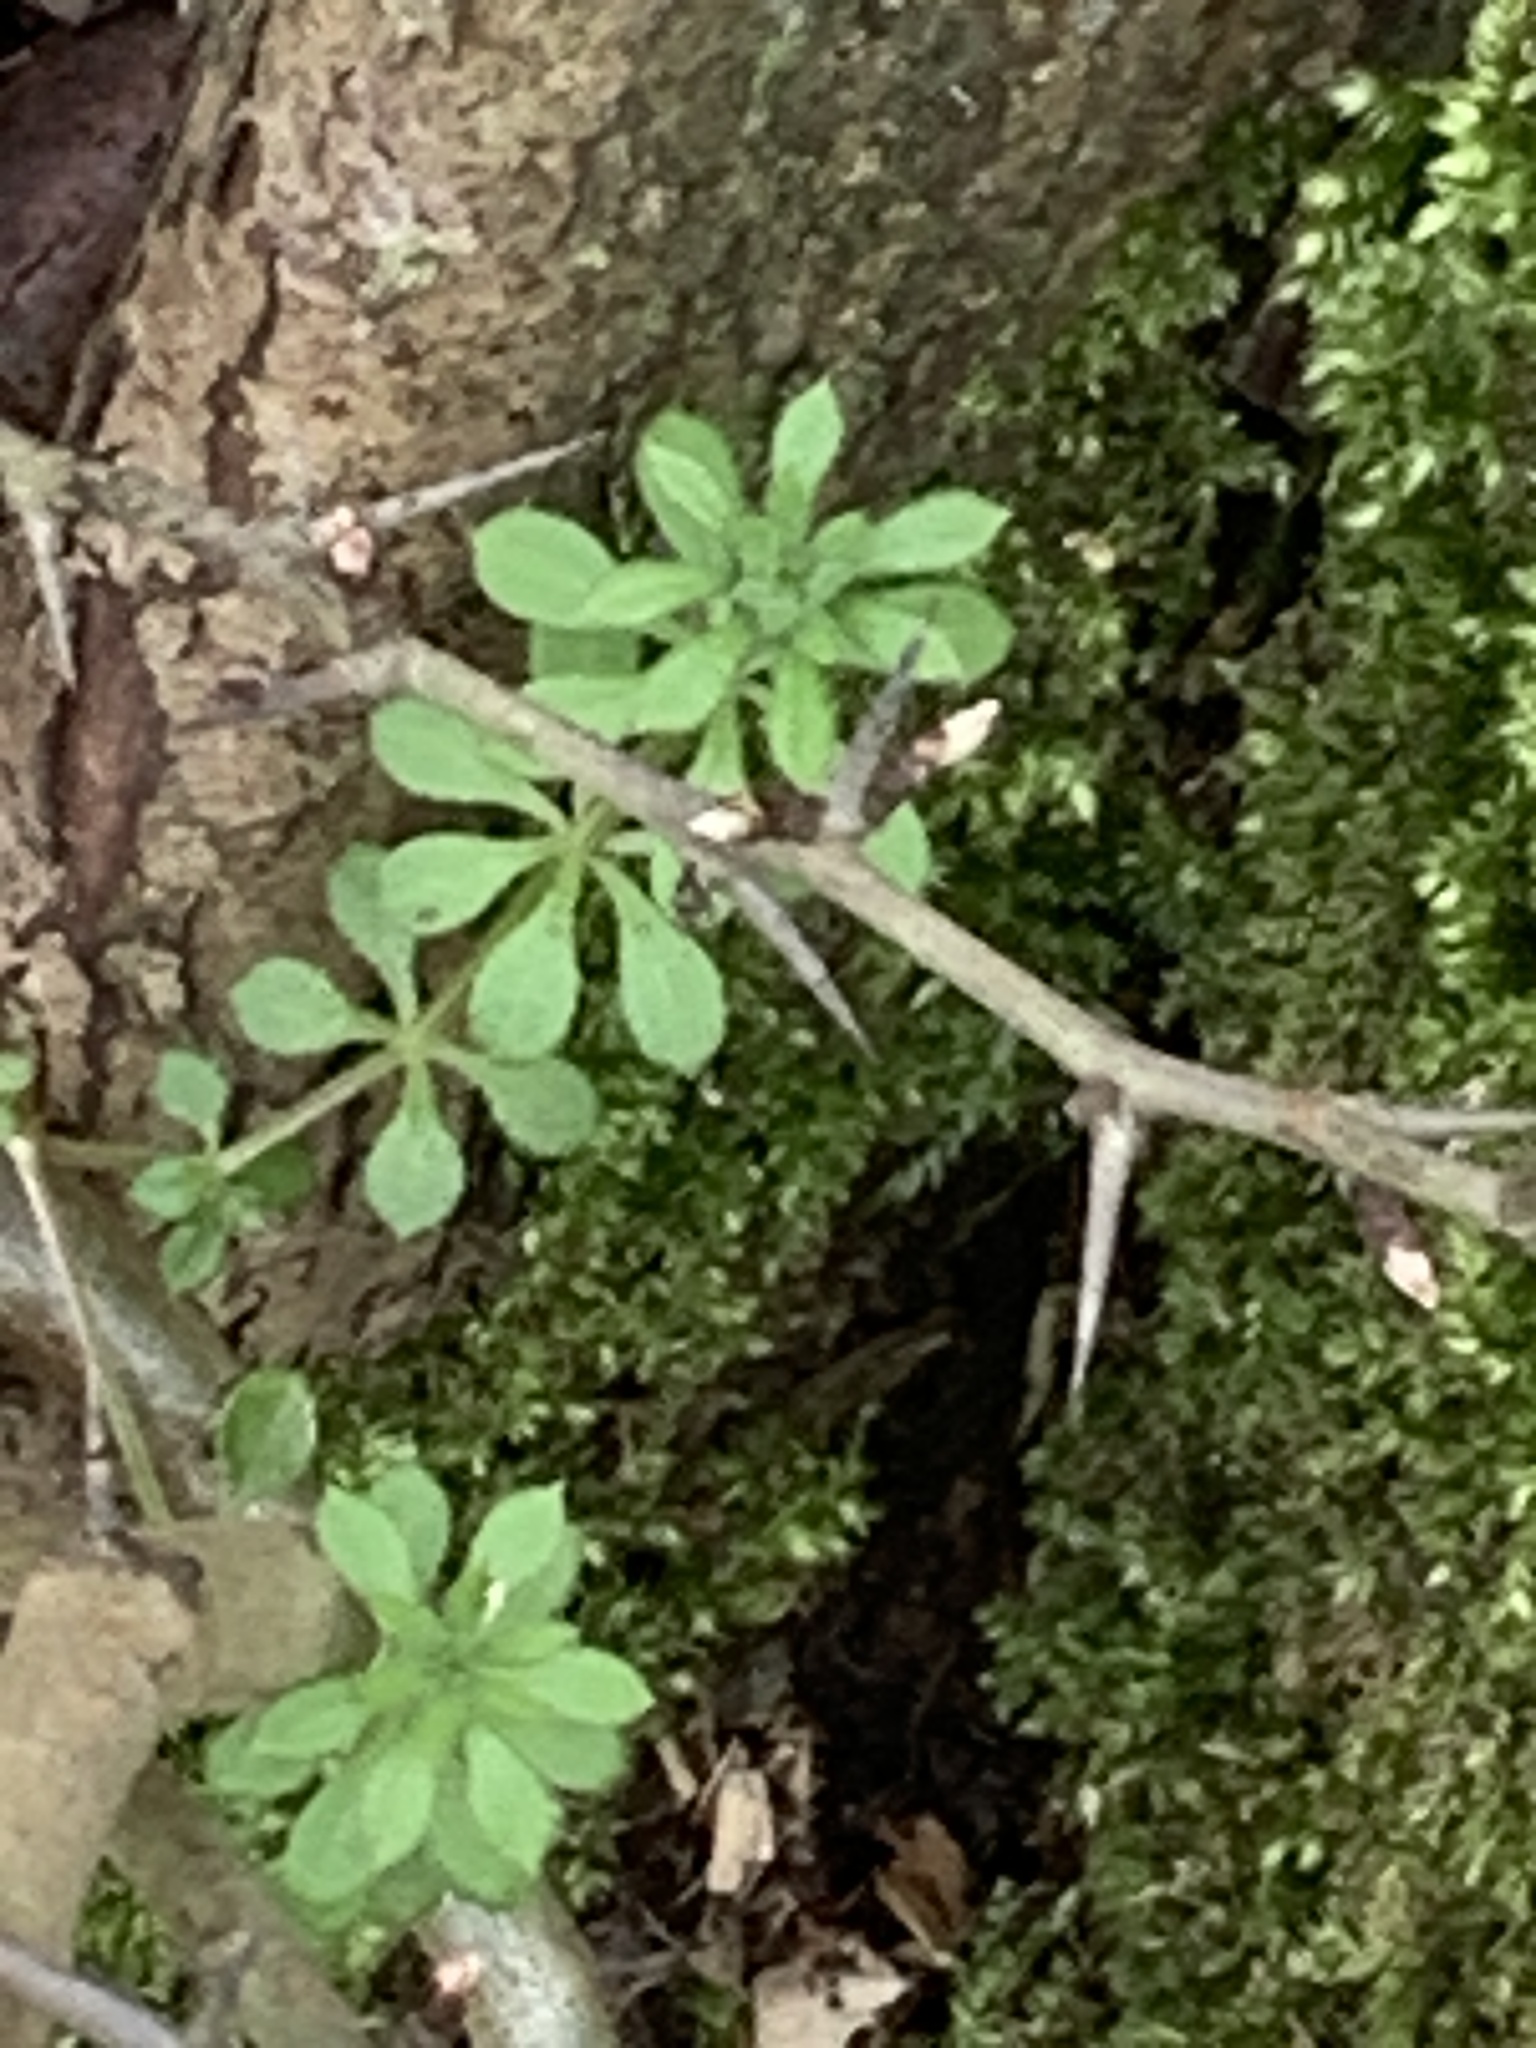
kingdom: Plantae
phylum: Tracheophyta
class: Magnoliopsida
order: Gentianales
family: Rubiaceae
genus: Galium
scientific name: Galium aparine
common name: Cleavers
